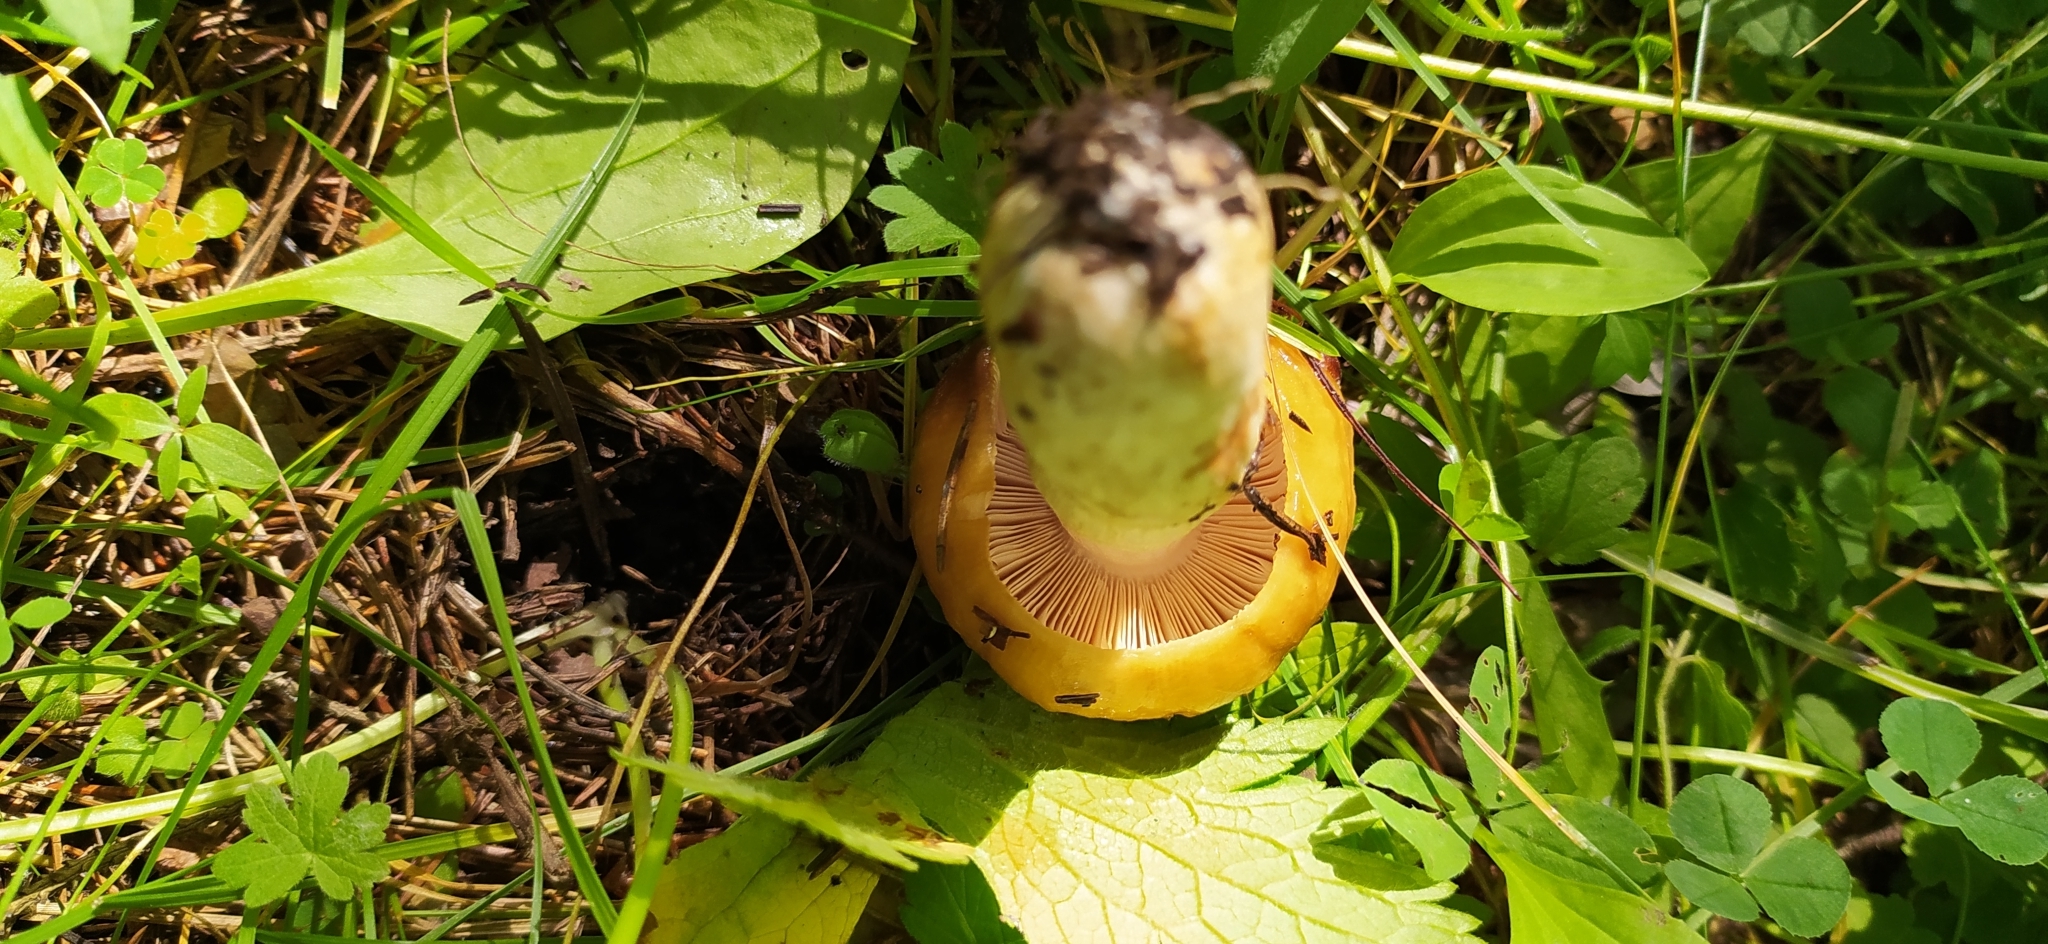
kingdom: Fungi
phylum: Basidiomycota
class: Agaricomycetes
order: Russulales
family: Russulaceae
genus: Russula
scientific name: Russula foetens
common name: Foetid russula
